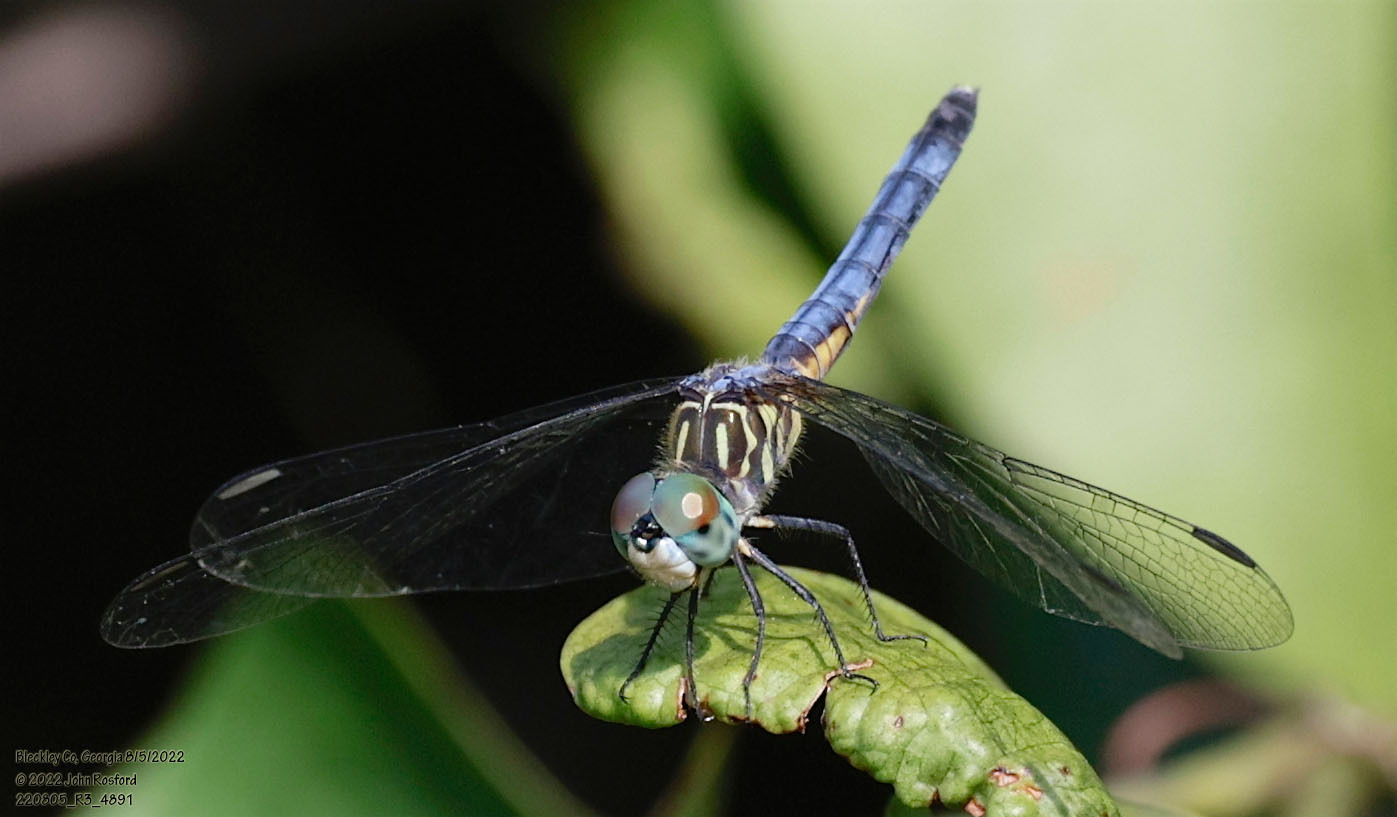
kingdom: Animalia
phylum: Arthropoda
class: Insecta
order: Odonata
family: Libellulidae
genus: Pachydiplax
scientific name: Pachydiplax longipennis
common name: Blue dasher
